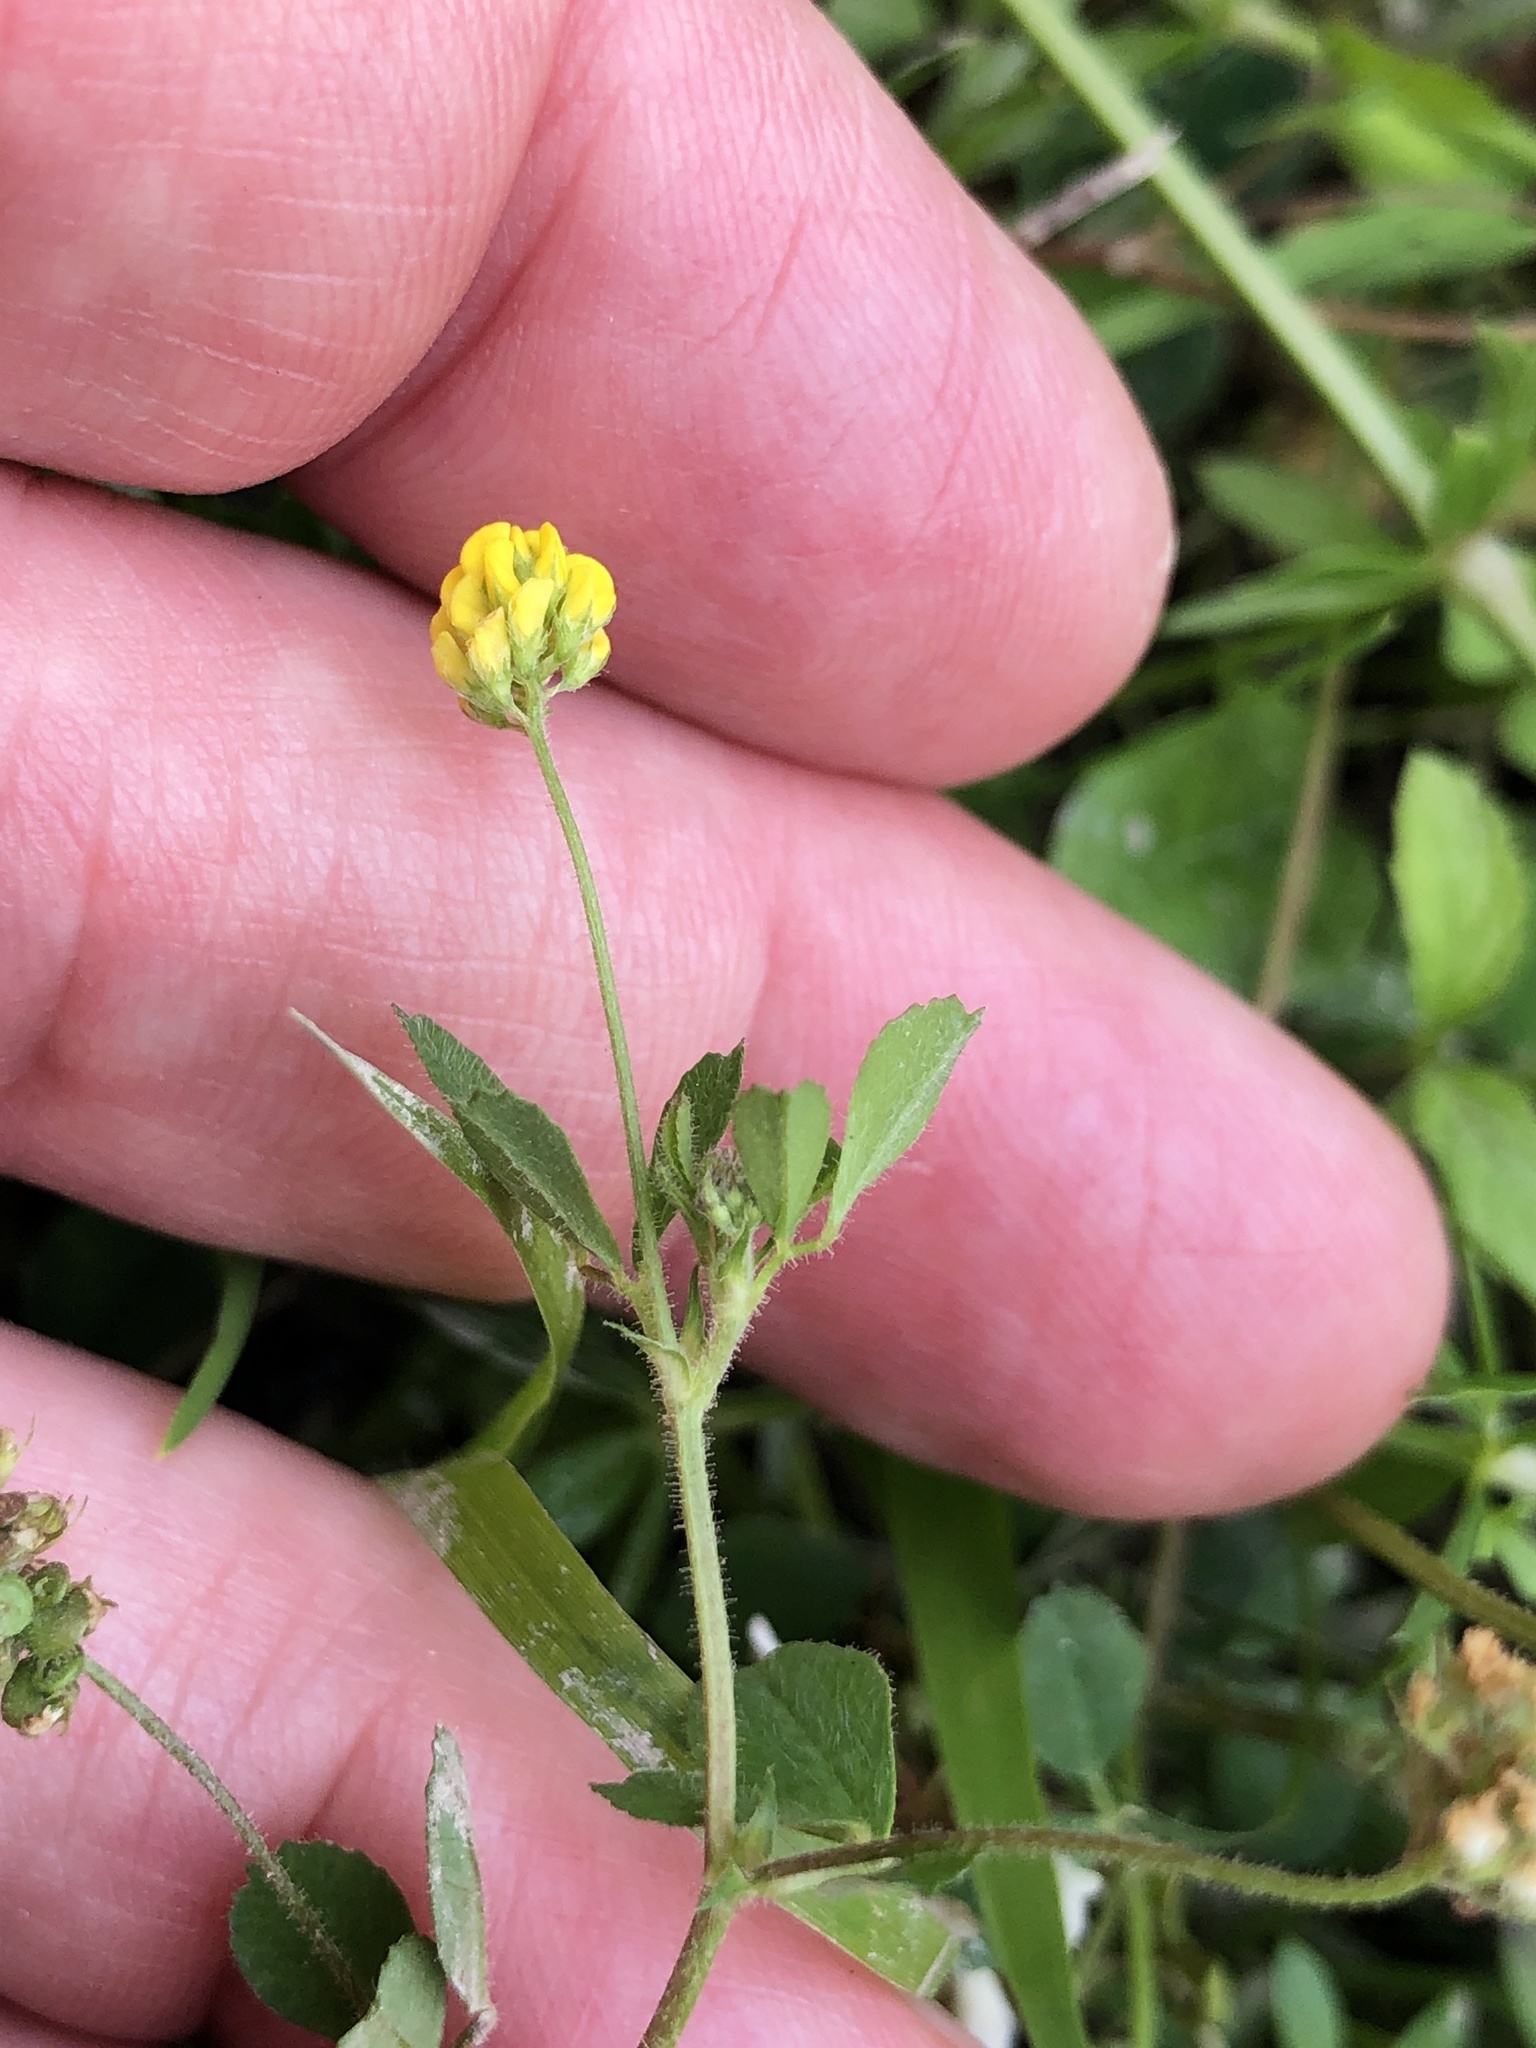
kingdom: Plantae
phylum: Tracheophyta
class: Magnoliopsida
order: Fabales
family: Fabaceae
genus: Medicago
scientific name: Medicago lupulina
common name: Black medick
